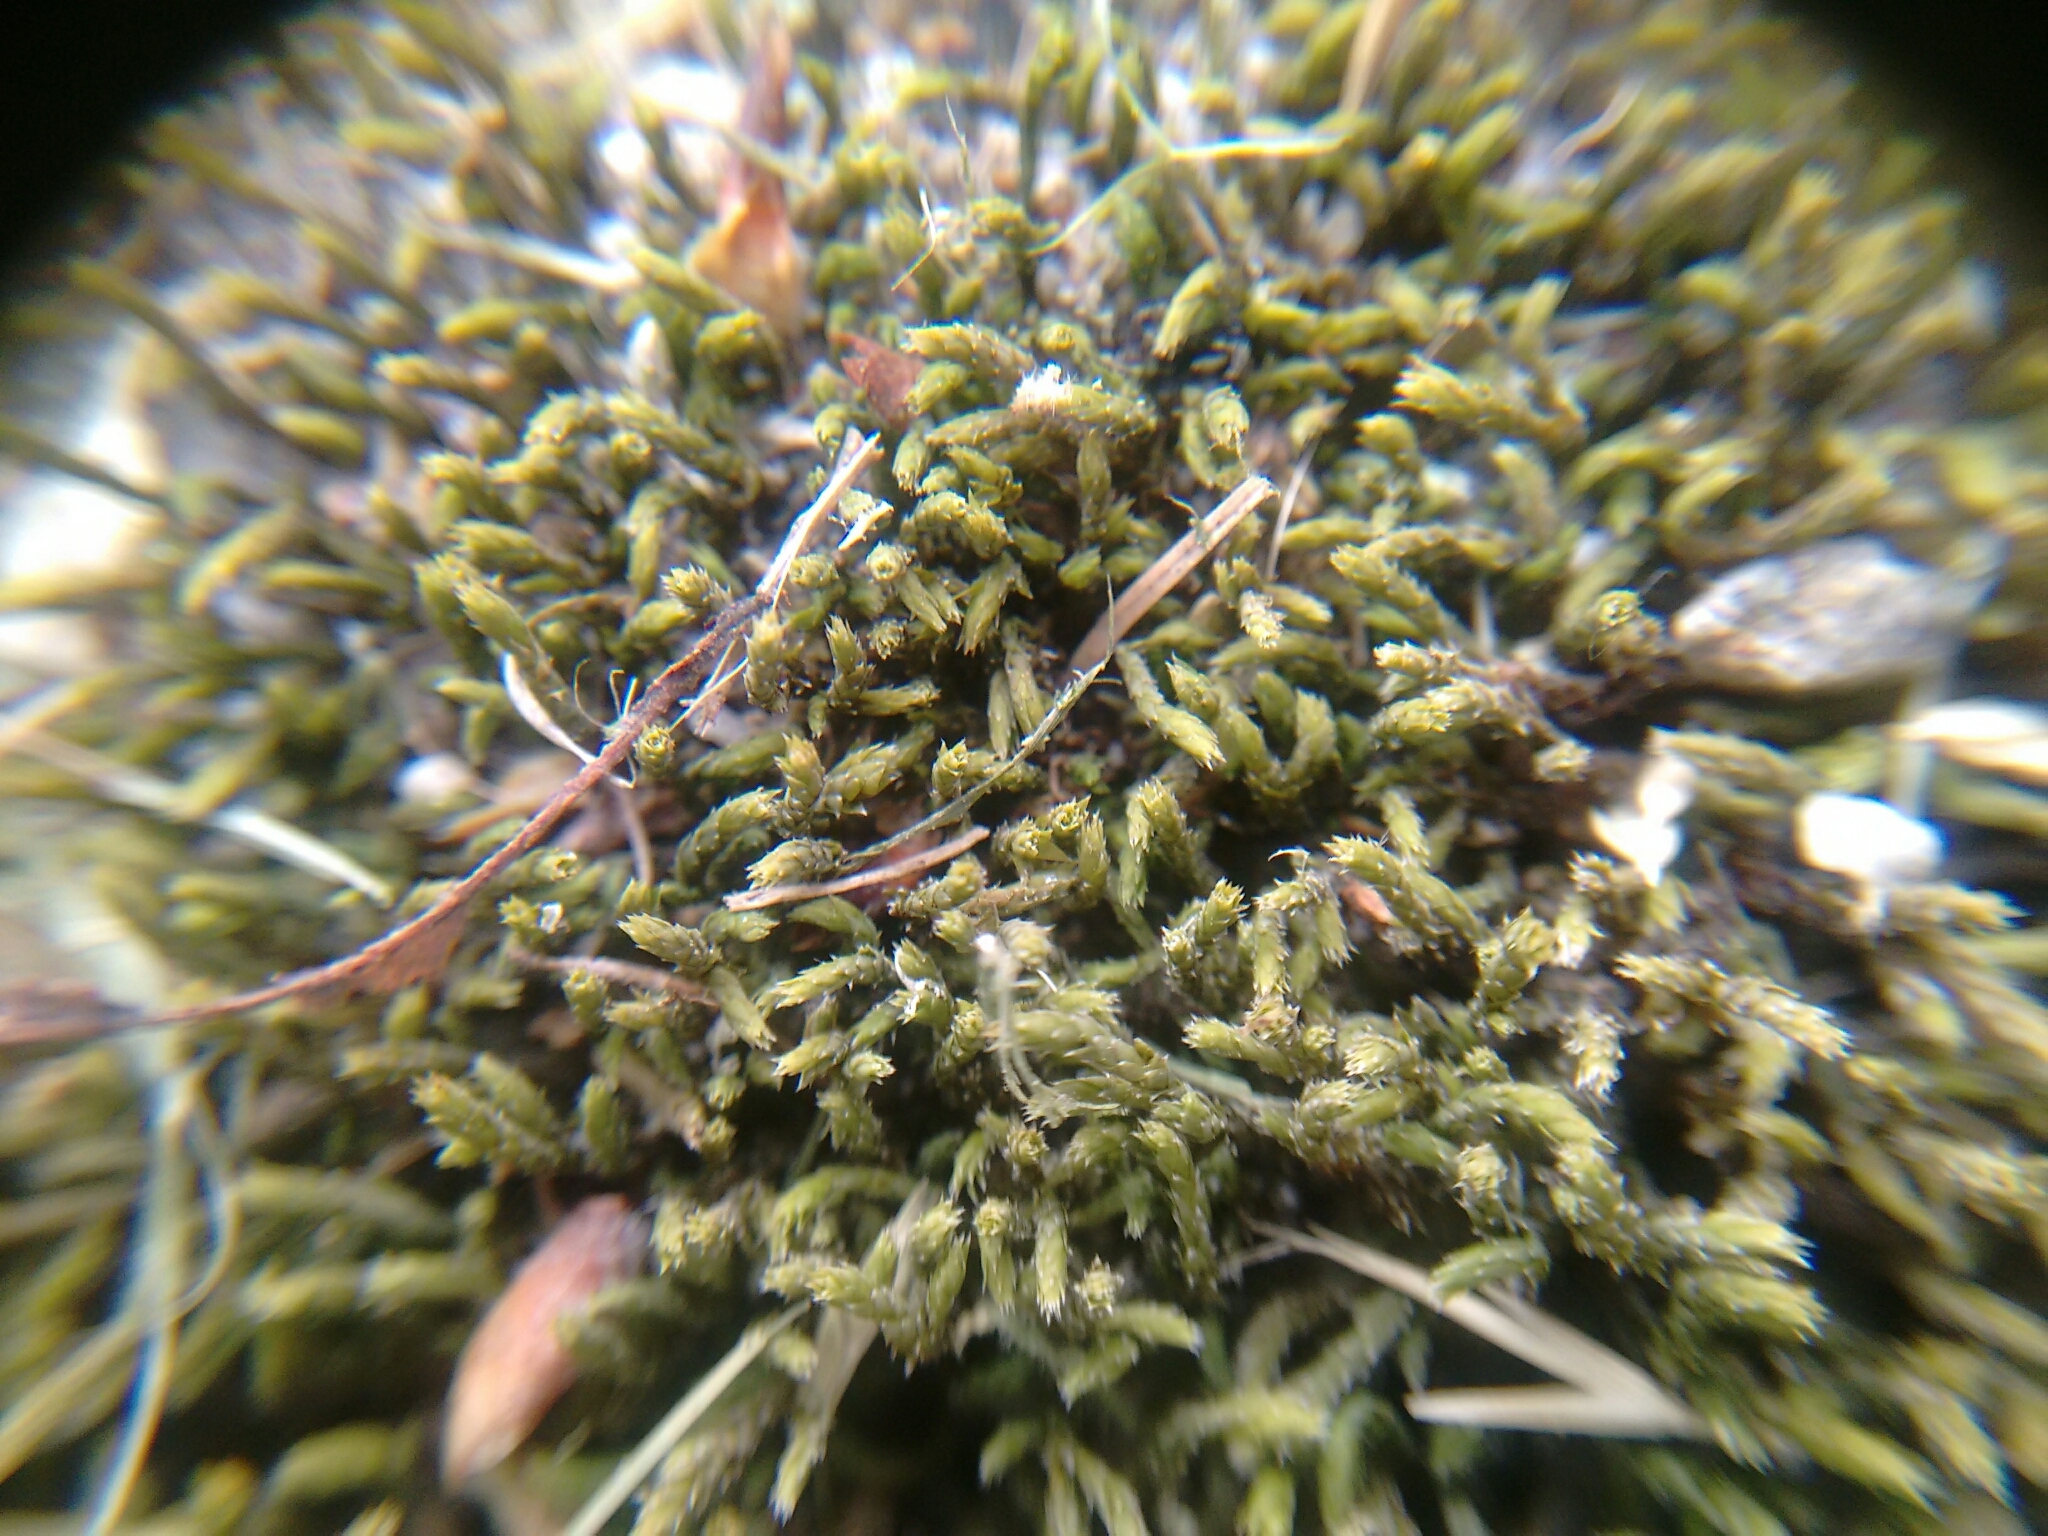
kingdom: Plantae
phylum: Bryophyta
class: Bryopsida
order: Hedwigiales
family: Hedwigiaceae
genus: Hedwigia
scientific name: Hedwigia ciliata
